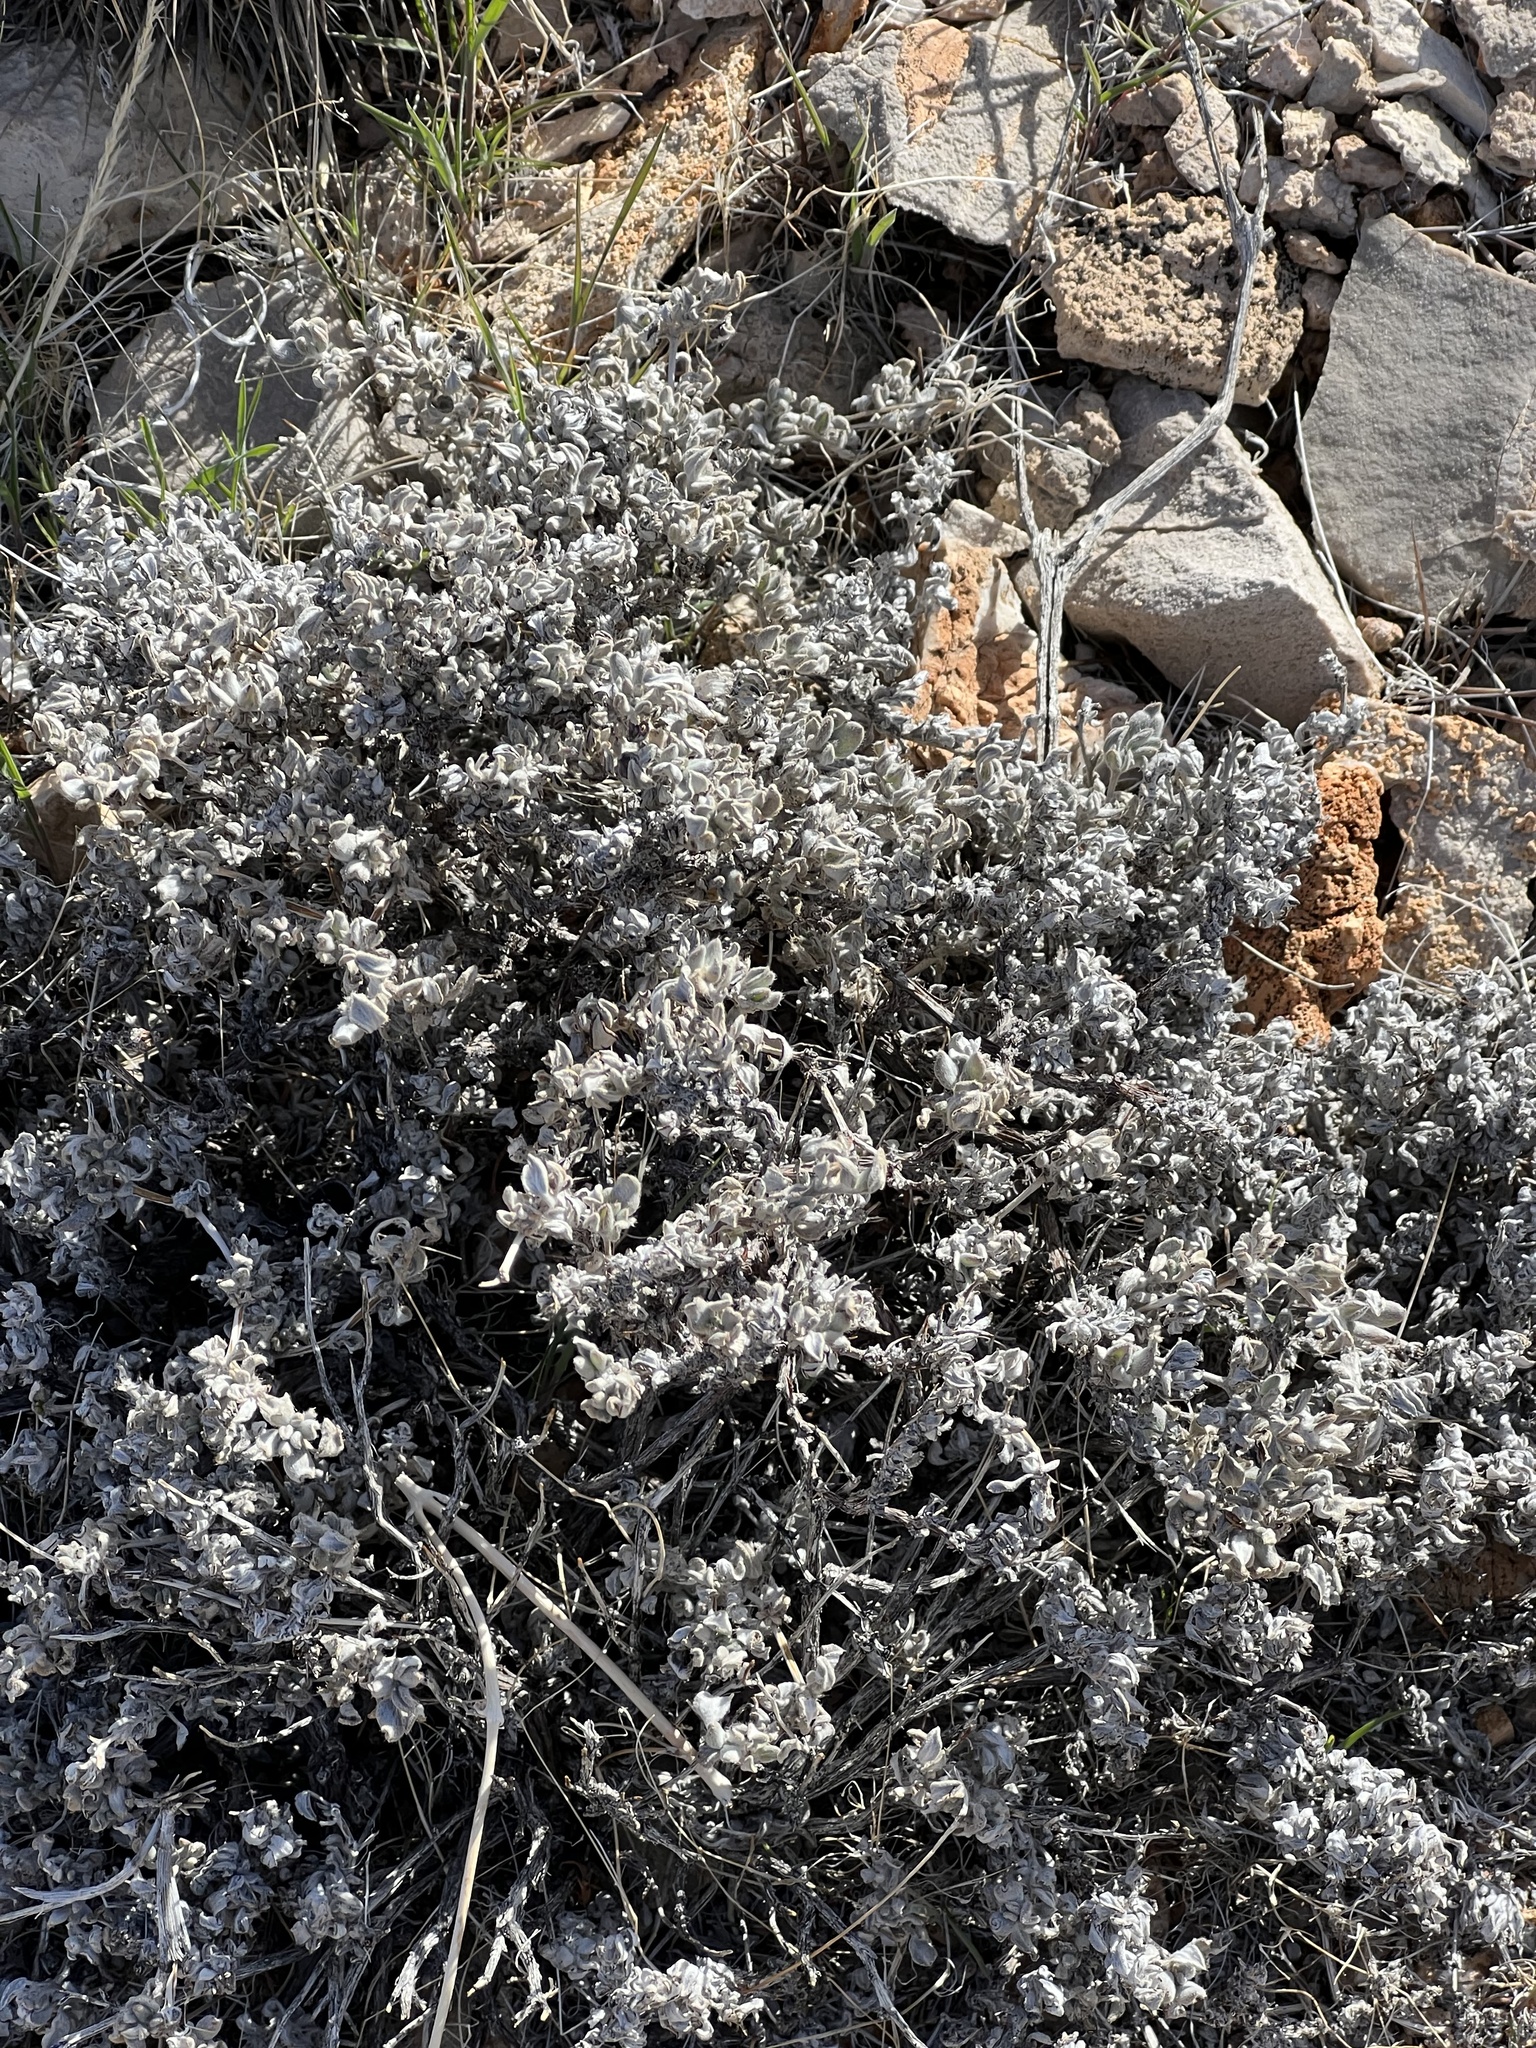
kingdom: Plantae
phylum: Tracheophyta
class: Magnoliopsida
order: Boraginales
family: Ehretiaceae
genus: Tiquilia
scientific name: Tiquilia canescens
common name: Hairy tiquilia
